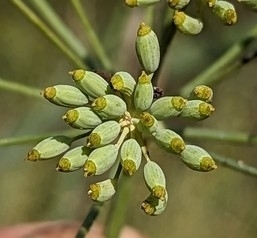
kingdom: Plantae
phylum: Tracheophyta
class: Magnoliopsida
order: Apiales
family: Apiaceae
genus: Foeniculum
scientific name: Foeniculum vulgare
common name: Fennel
